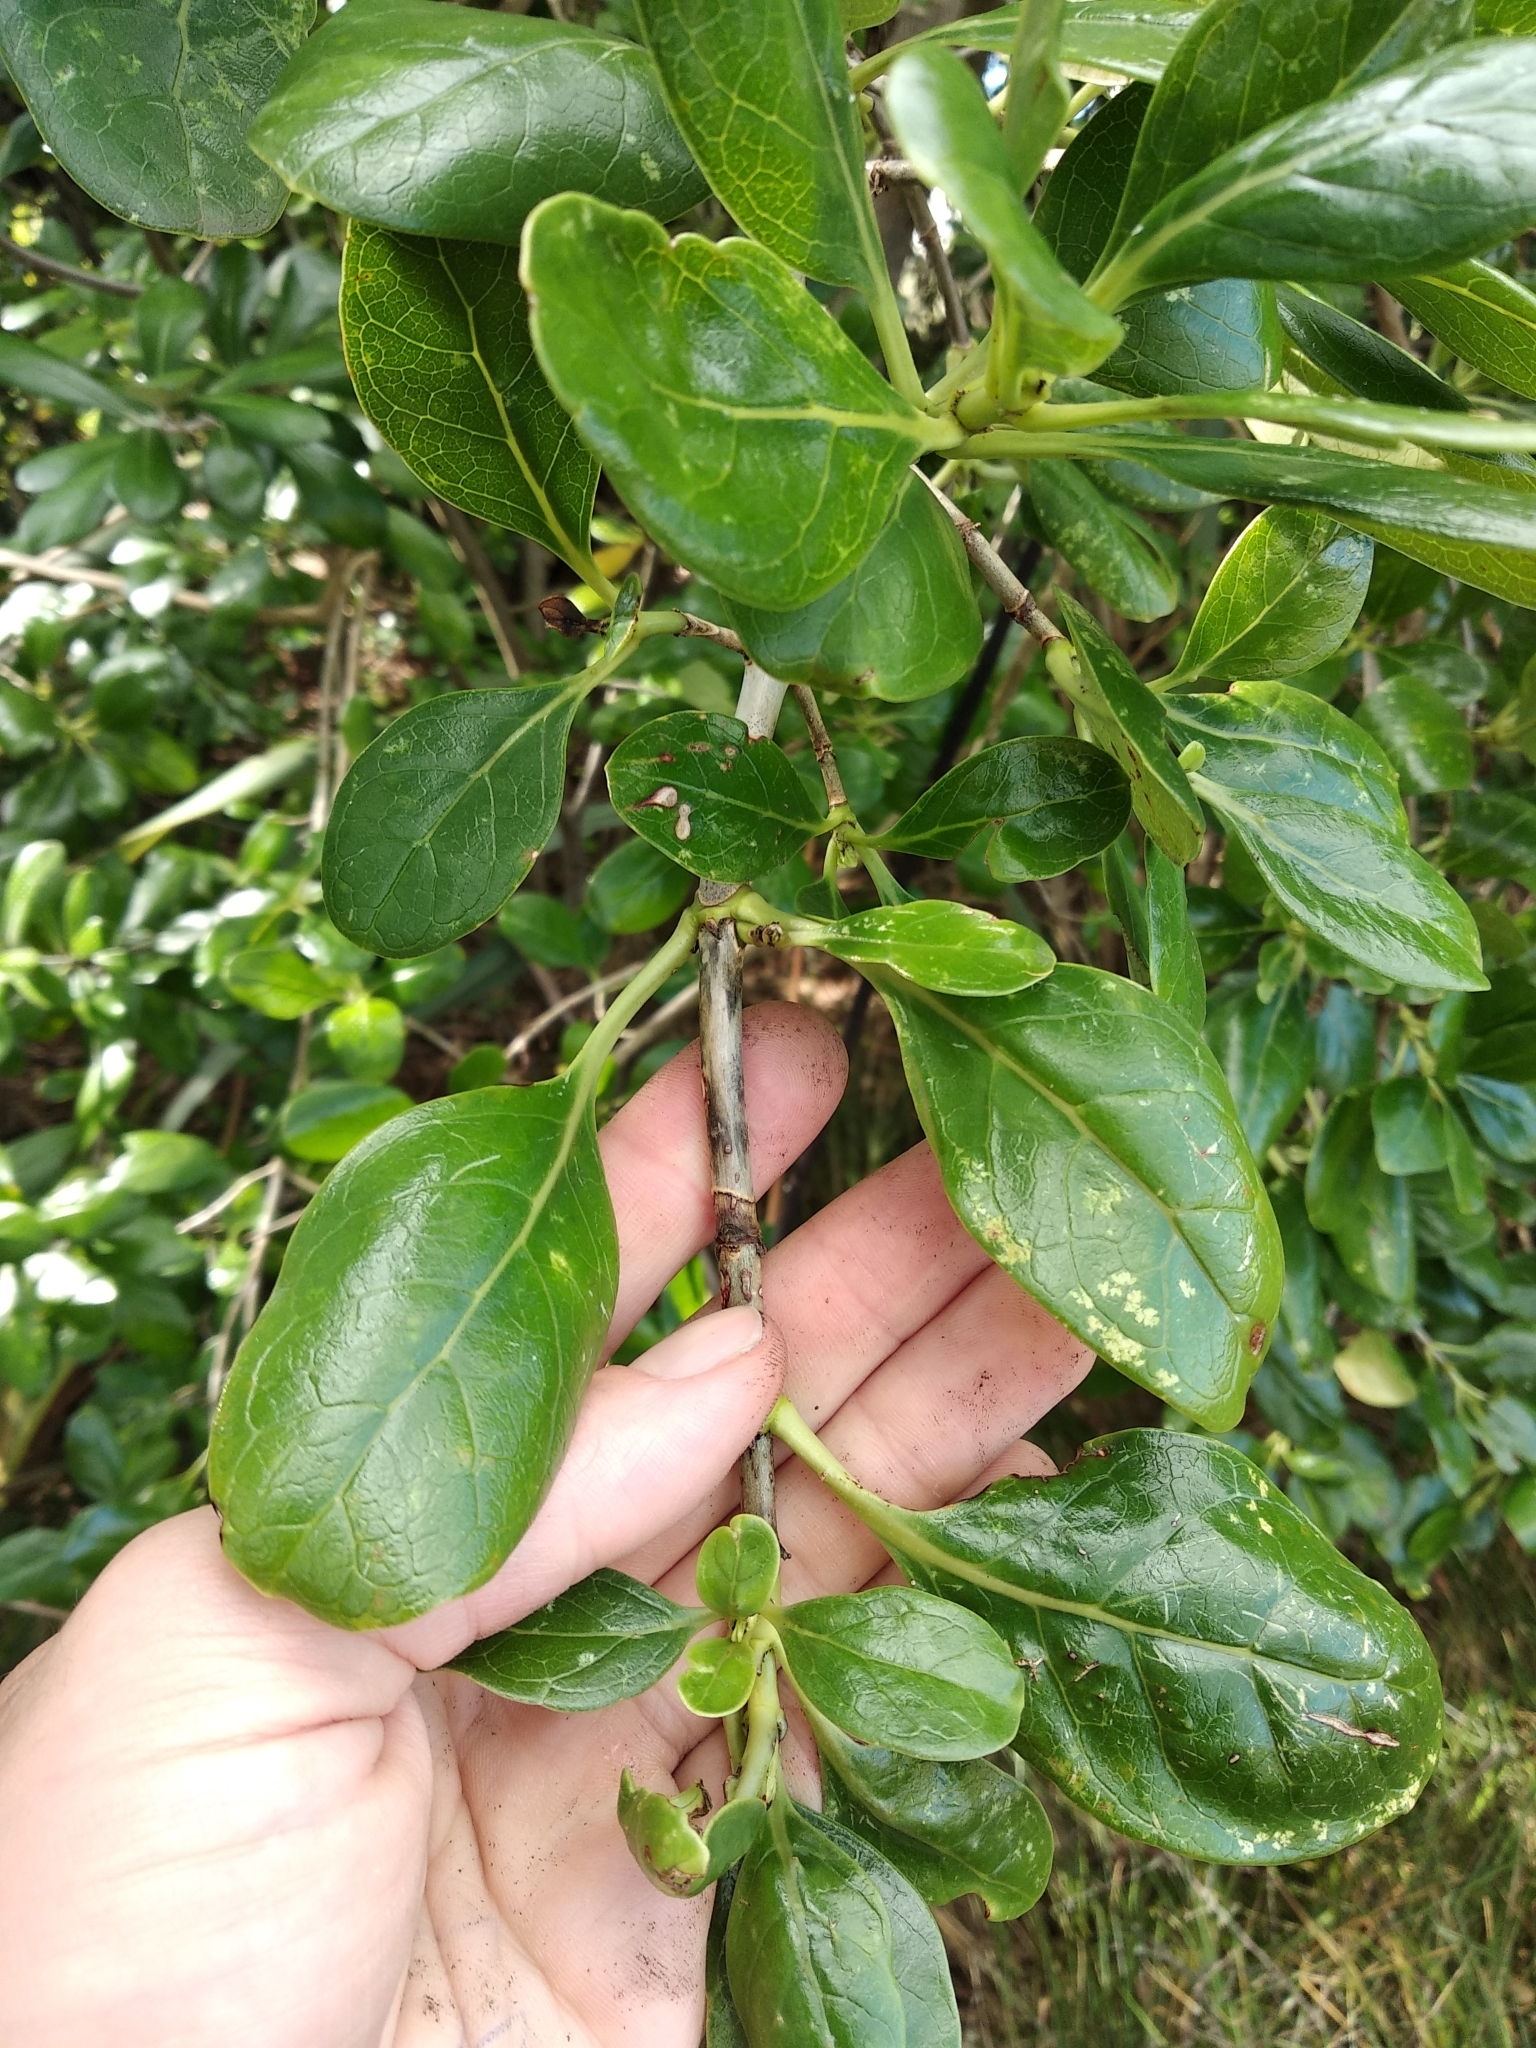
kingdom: Plantae
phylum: Tracheophyta
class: Magnoliopsida
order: Gentianales
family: Rubiaceae
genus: Coprosma
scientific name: Coprosma repens
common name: Tree bedstraw
